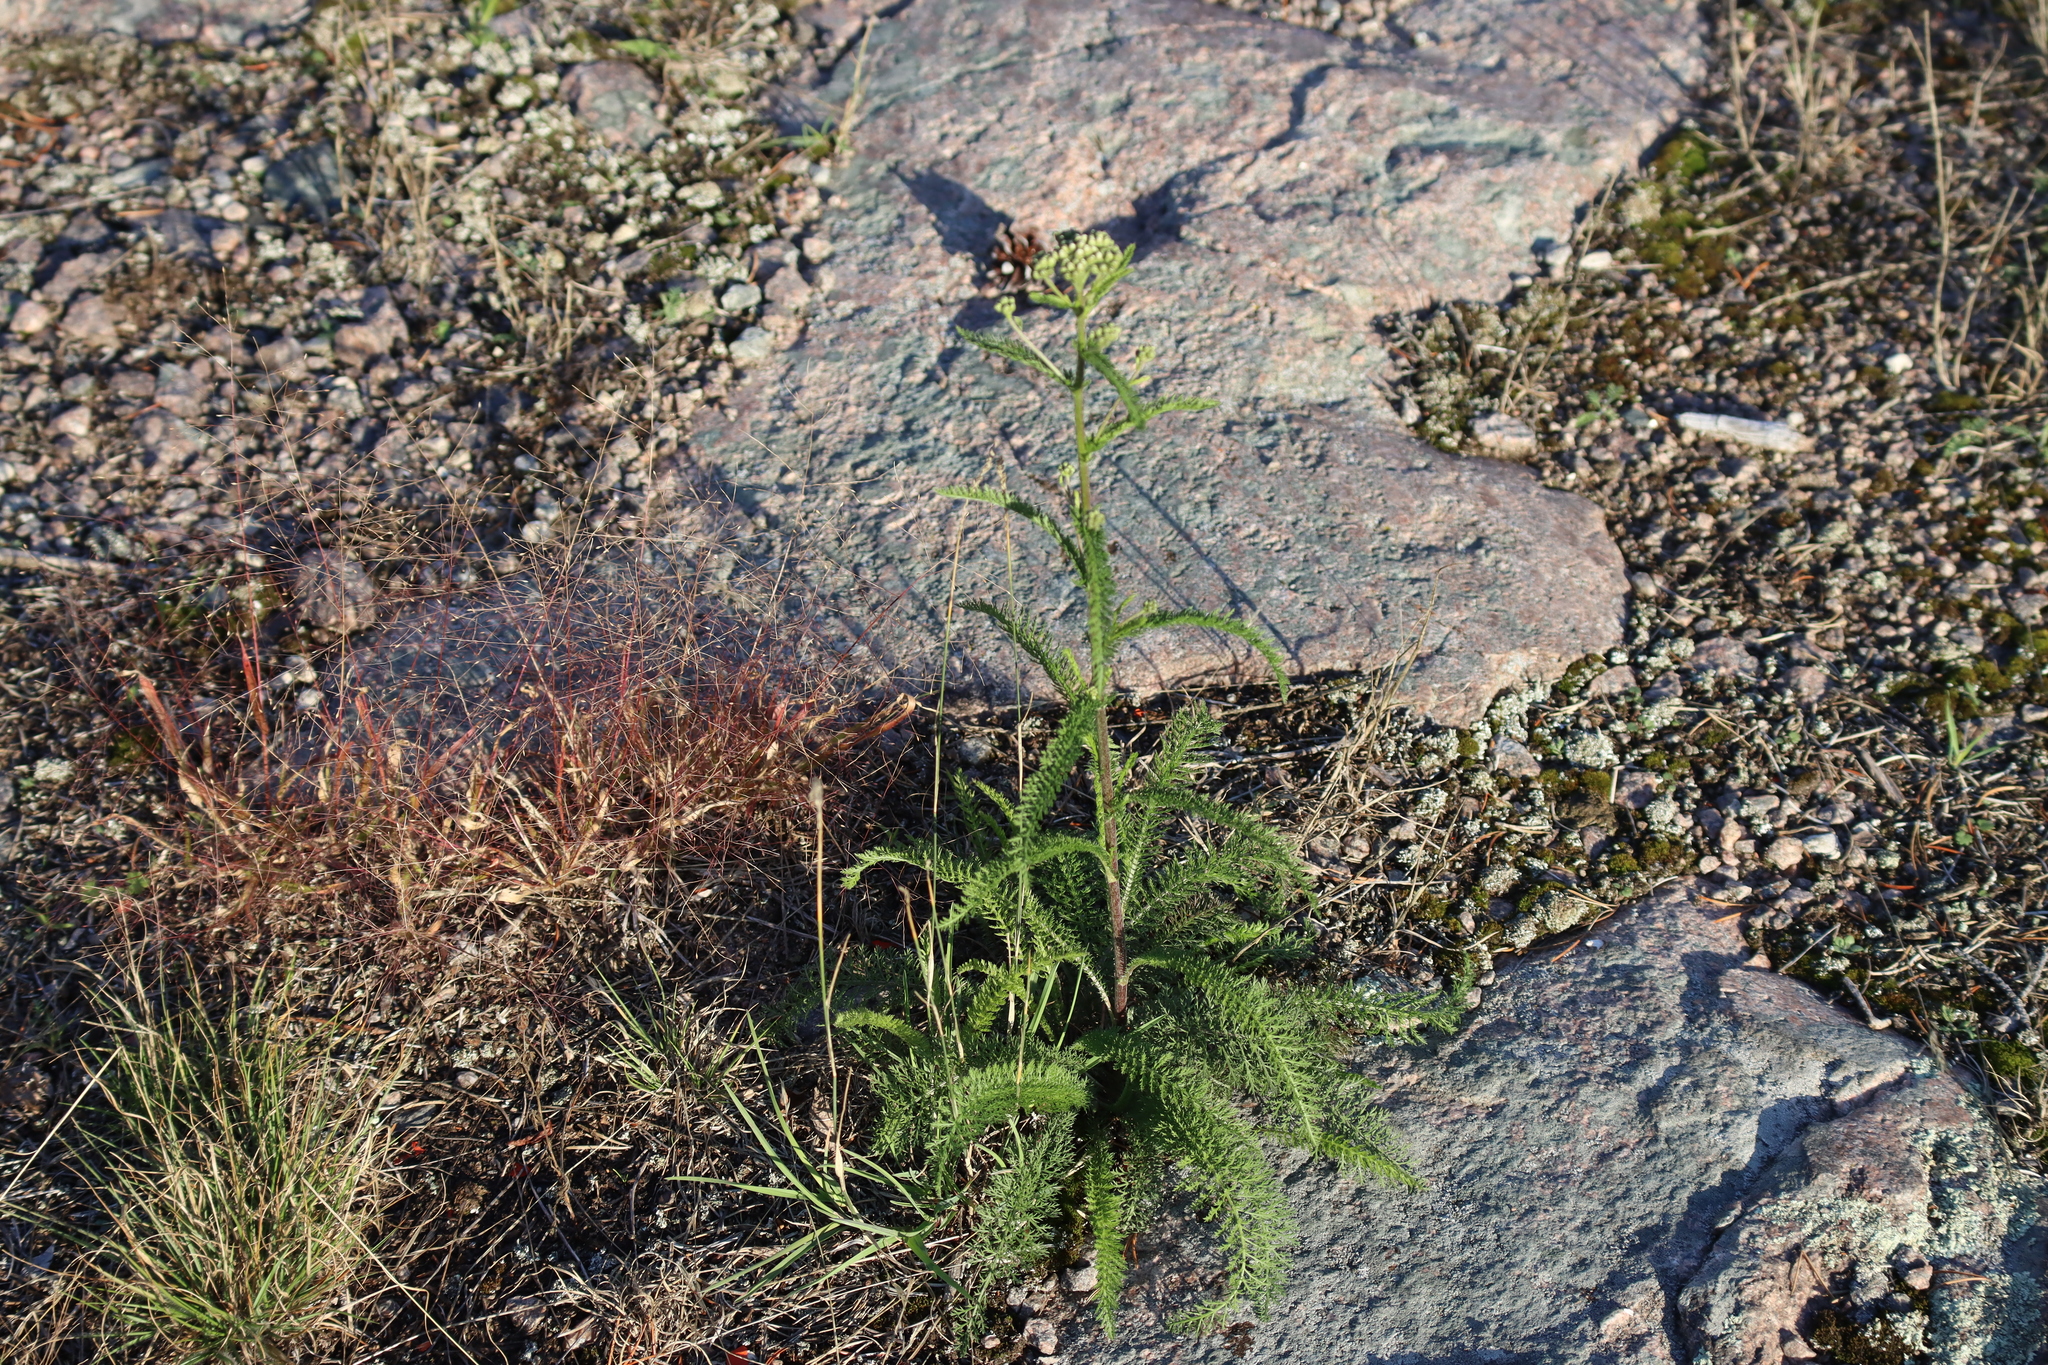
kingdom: Plantae
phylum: Tracheophyta
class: Magnoliopsida
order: Asterales
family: Asteraceae
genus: Achillea
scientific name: Achillea millefolium
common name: Yarrow
